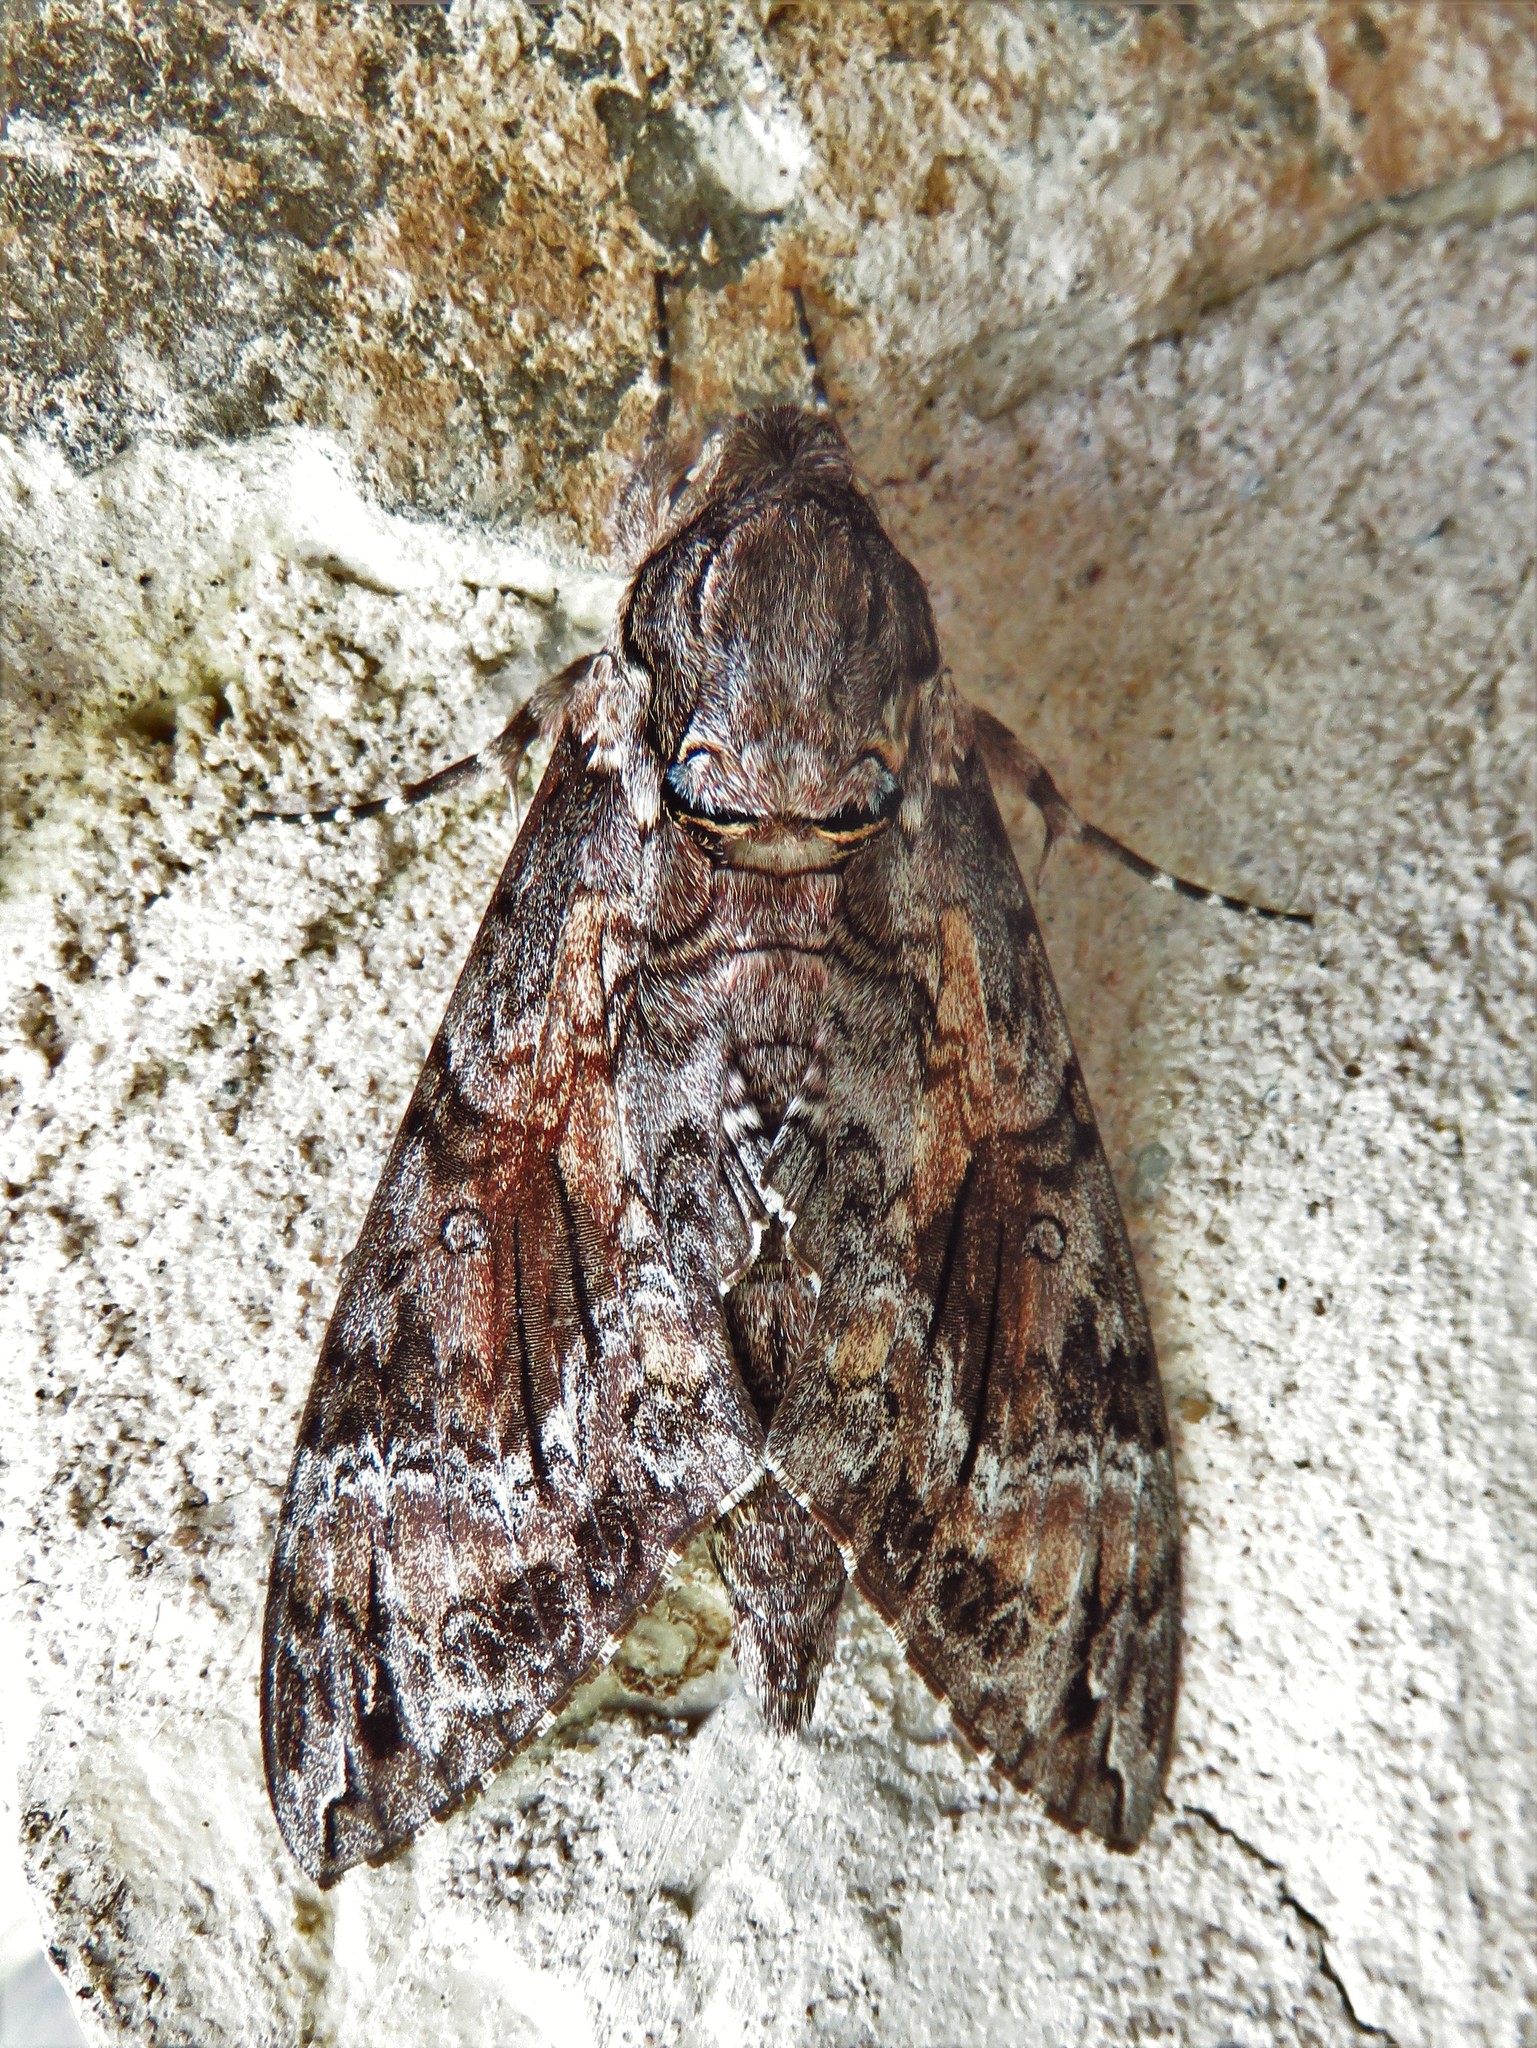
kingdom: Animalia
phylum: Arthropoda
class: Insecta
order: Lepidoptera
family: Sphingidae
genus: Agrius
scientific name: Agrius cingulata
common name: Pink-spotted hawkmoth
